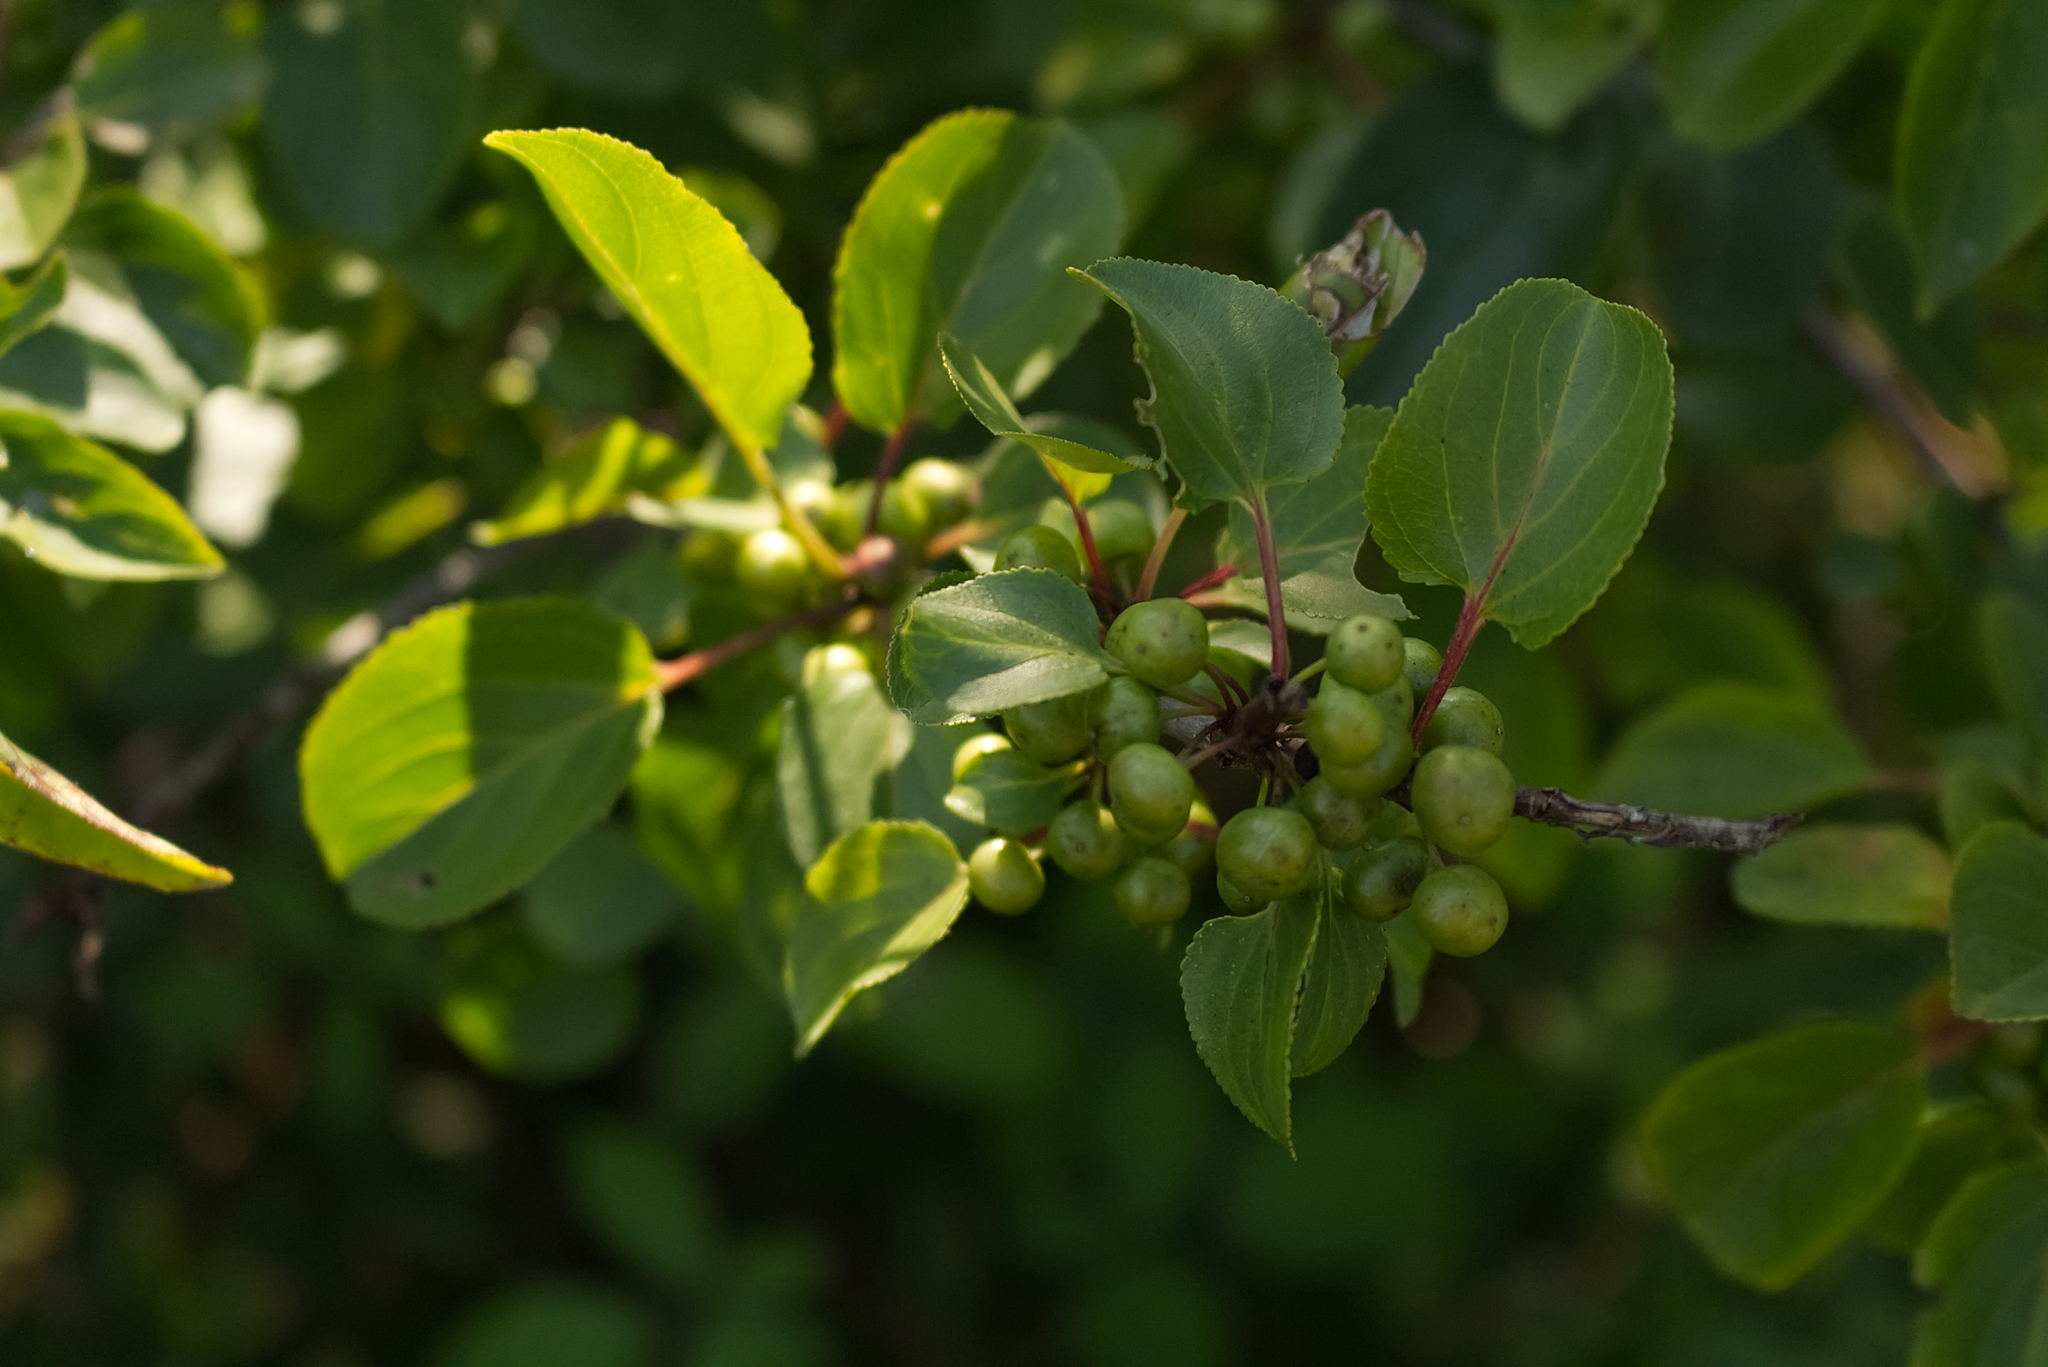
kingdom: Plantae
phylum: Tracheophyta
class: Magnoliopsida
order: Rosales
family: Rhamnaceae
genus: Rhamnus
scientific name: Rhamnus cathartica
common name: Common buckthorn
